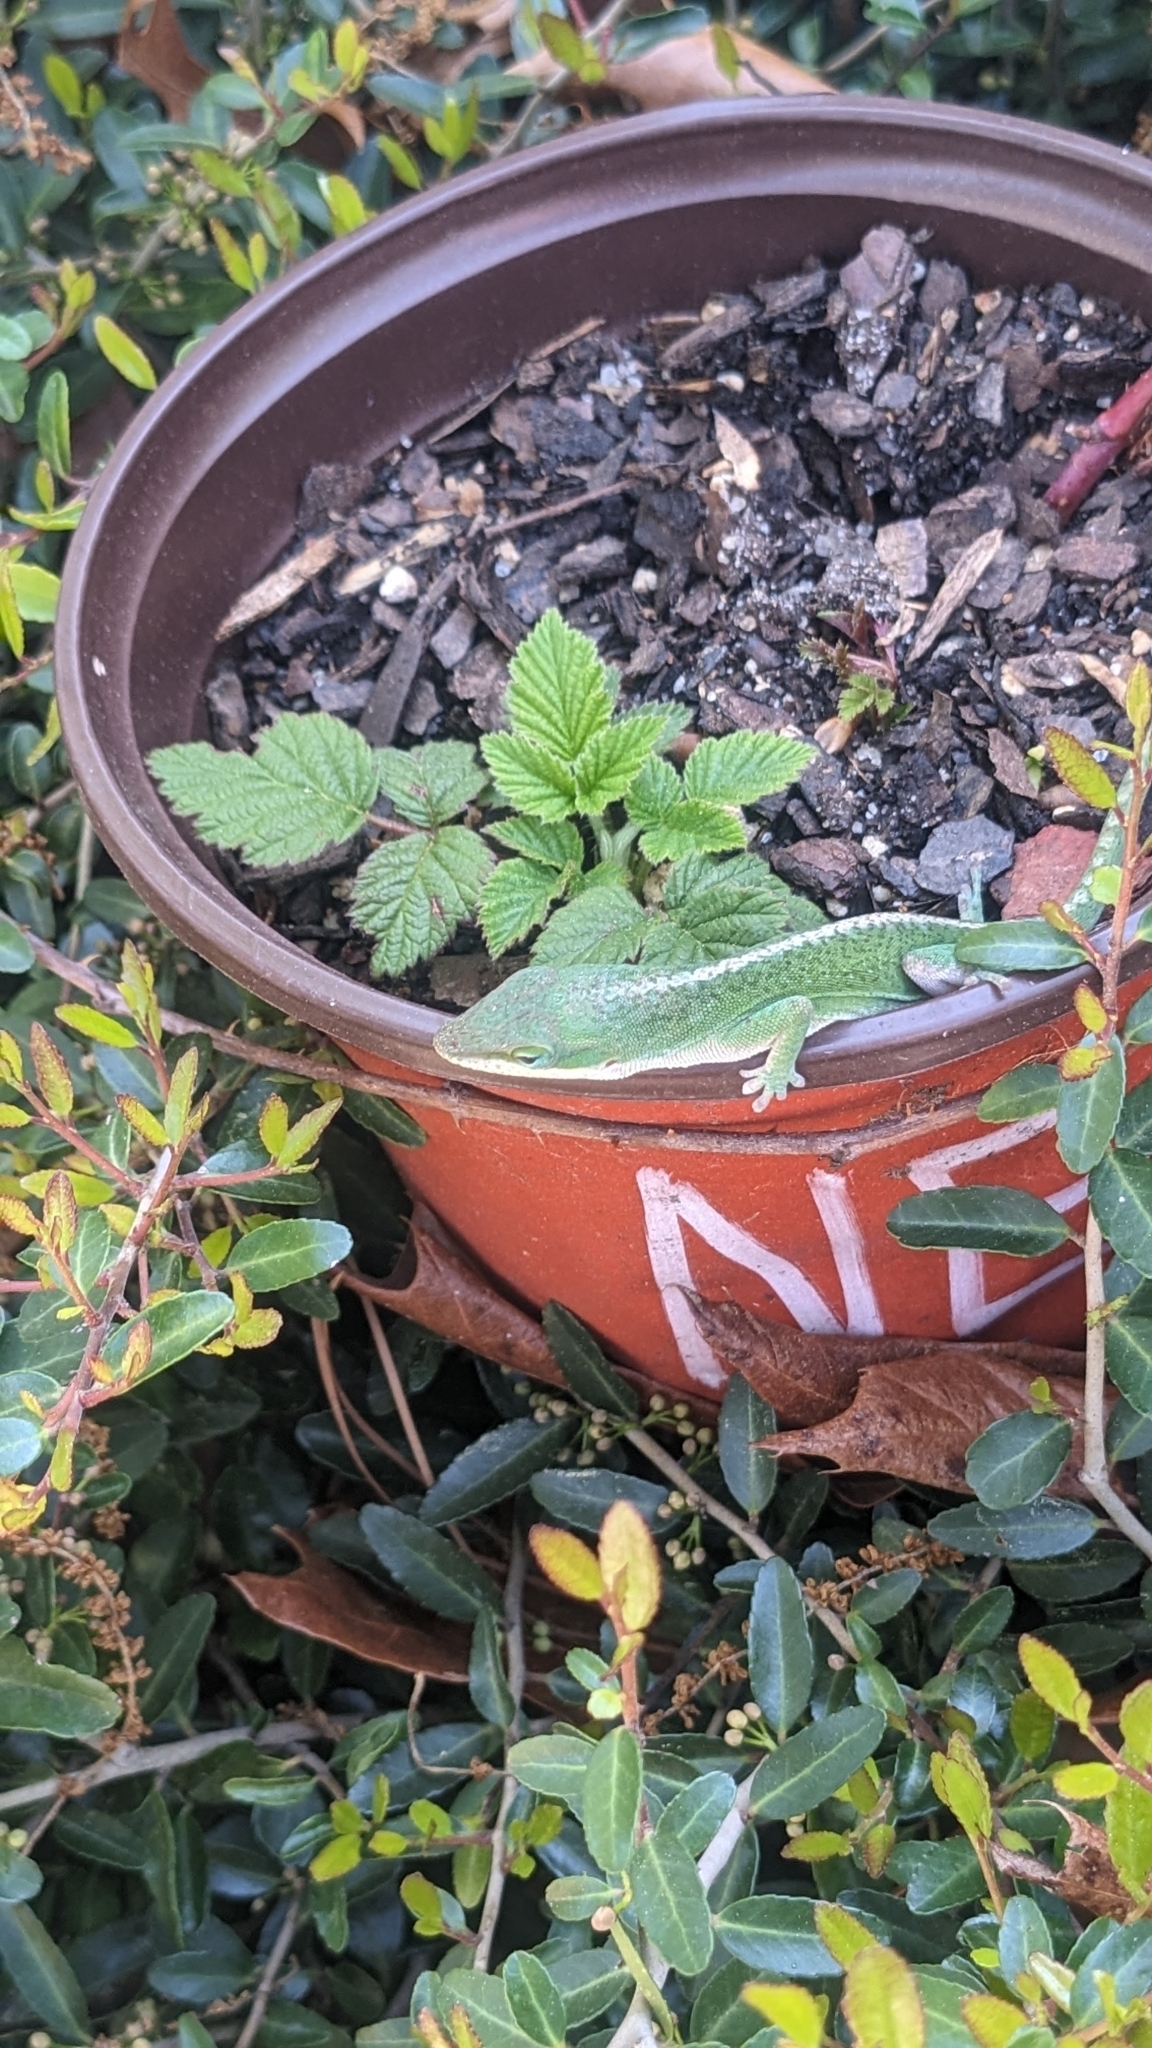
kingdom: Animalia
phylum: Chordata
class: Squamata
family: Dactyloidae
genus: Anolis
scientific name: Anolis carolinensis
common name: Green anole
